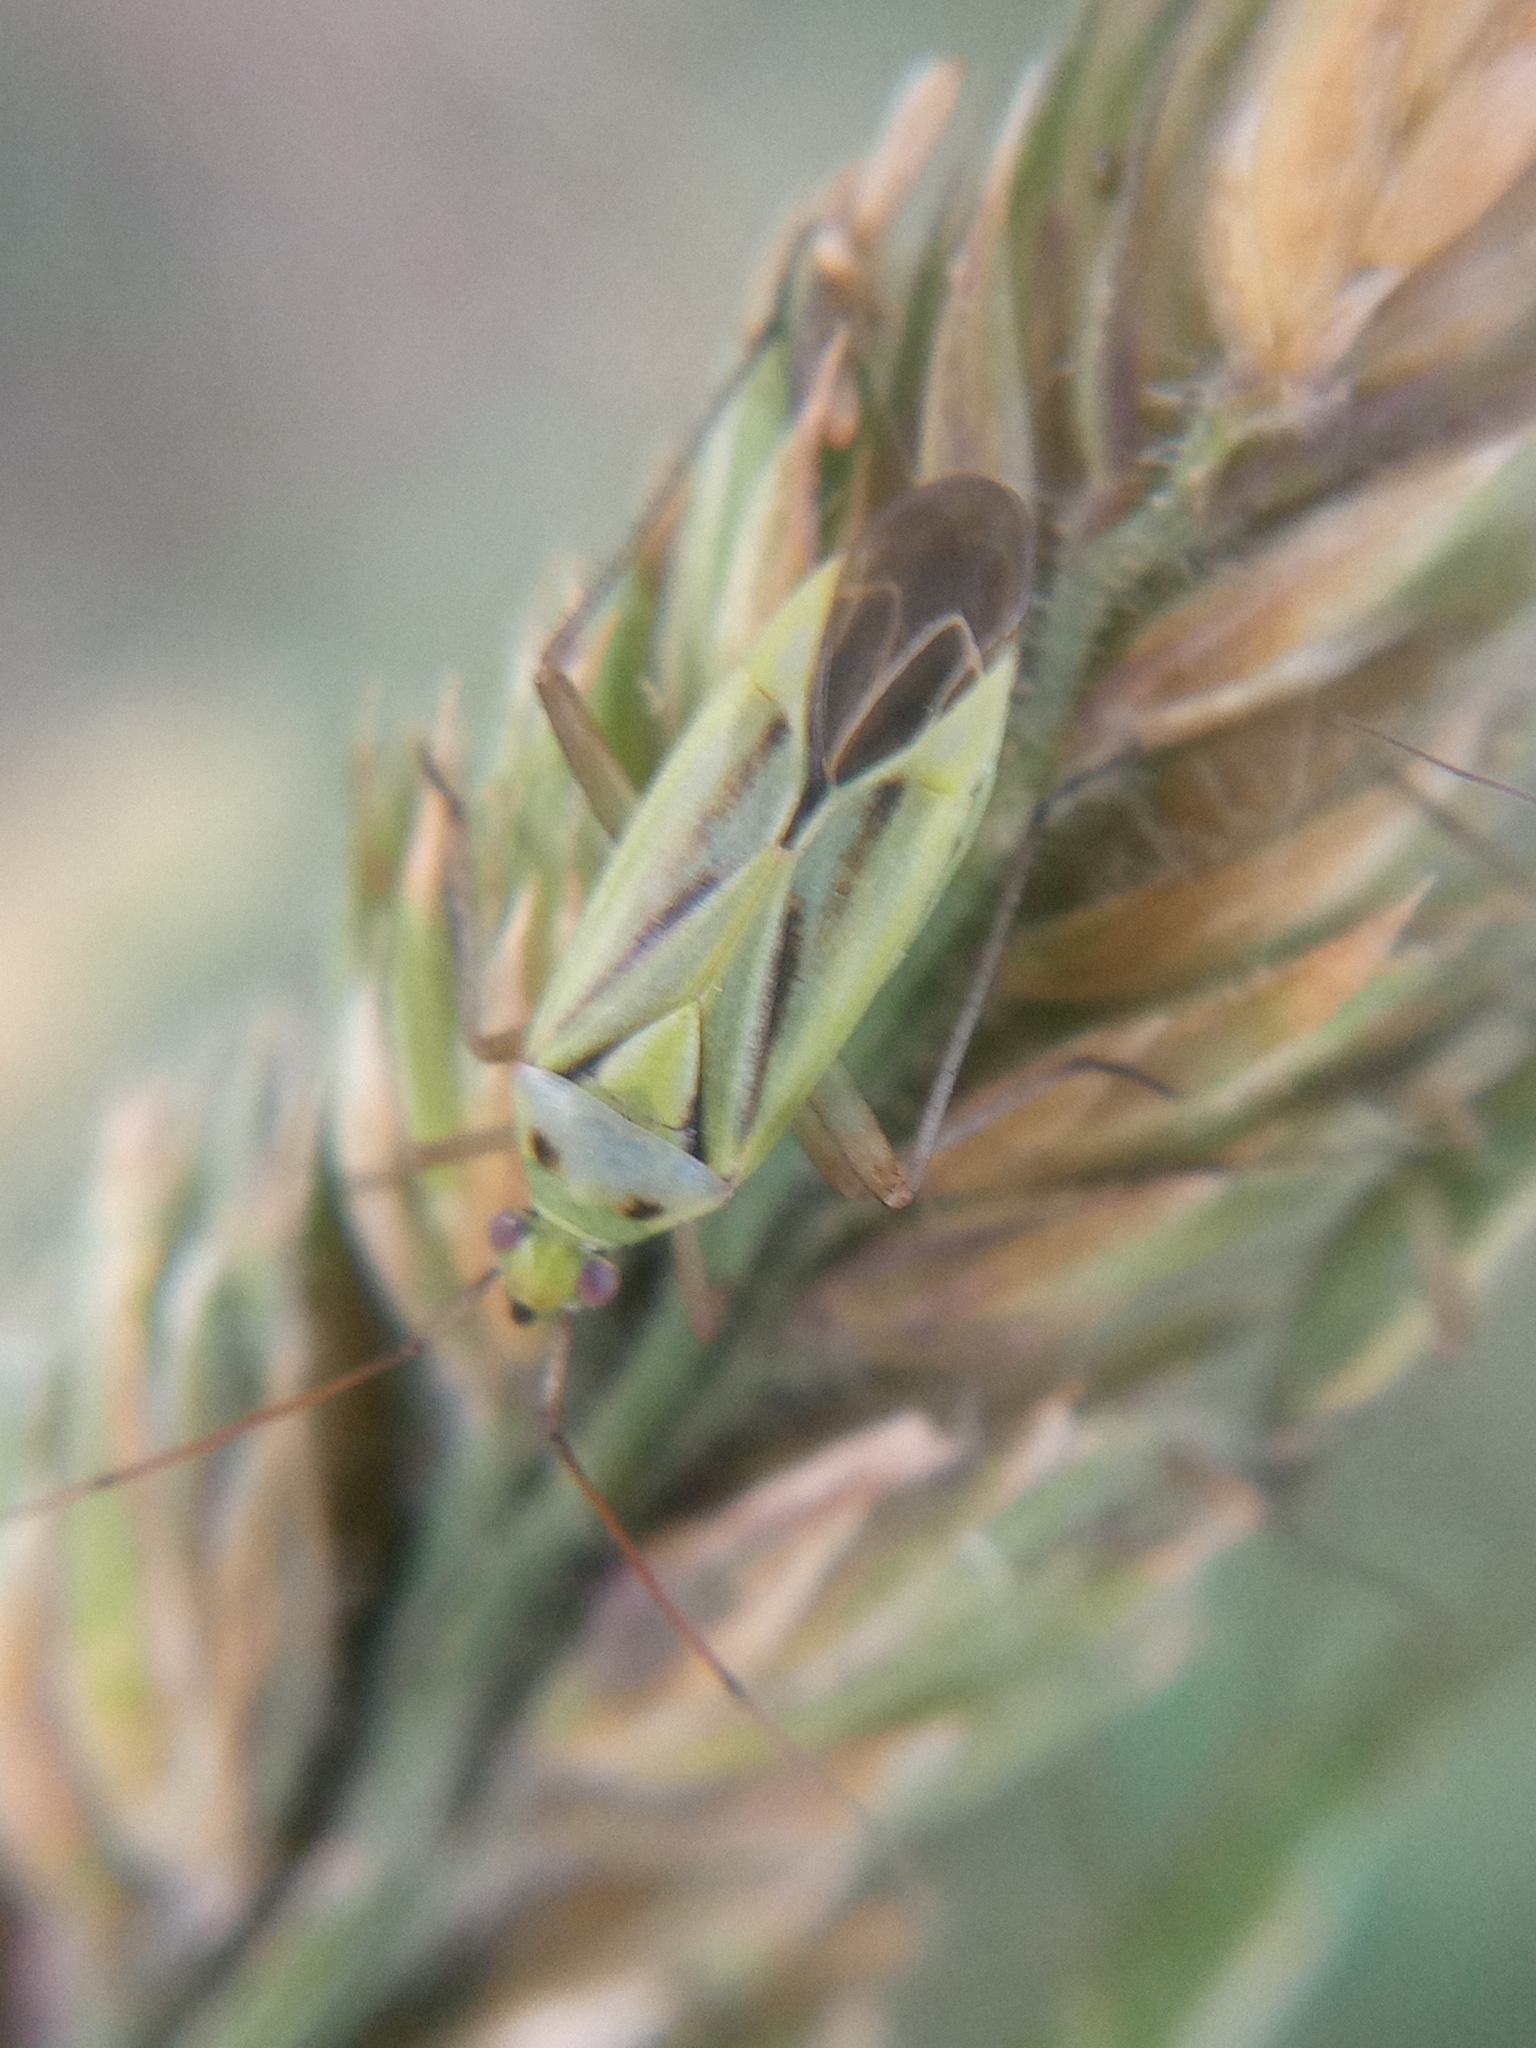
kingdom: Animalia
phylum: Arthropoda
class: Insecta
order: Hemiptera
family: Miridae
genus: Stenotus
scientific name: Stenotus binotatus
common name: Plant bug
